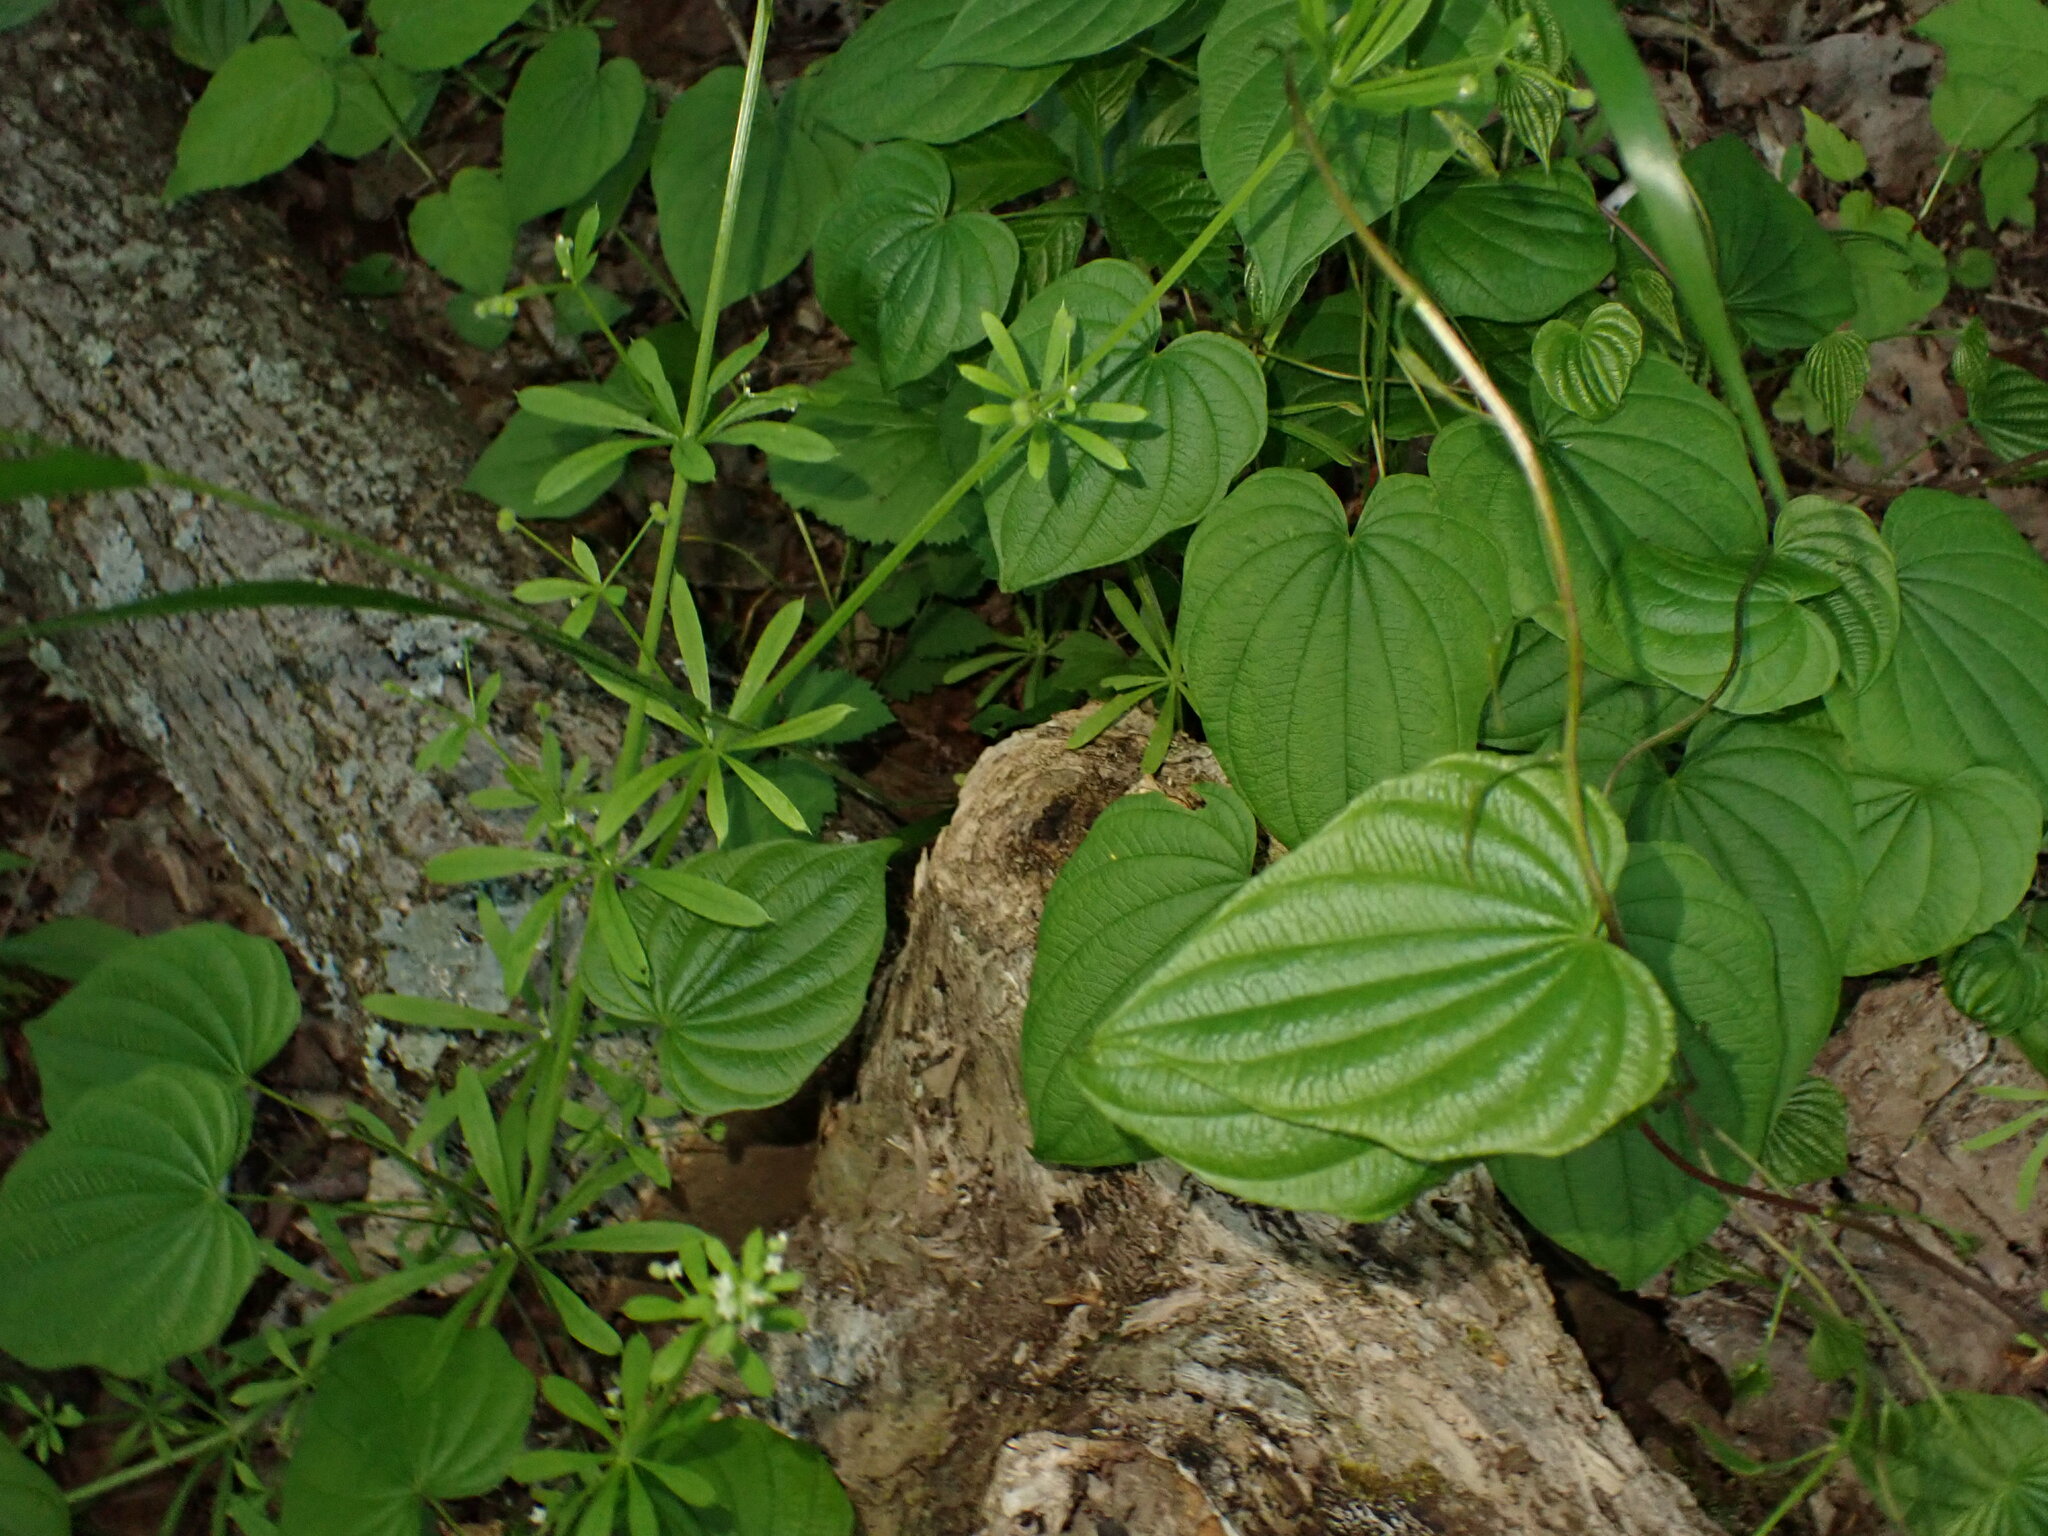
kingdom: Plantae
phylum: Tracheophyta
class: Liliopsida
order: Dioscoreales
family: Dioscoreaceae
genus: Dioscorea
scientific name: Dioscorea villosa
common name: Wild yam
